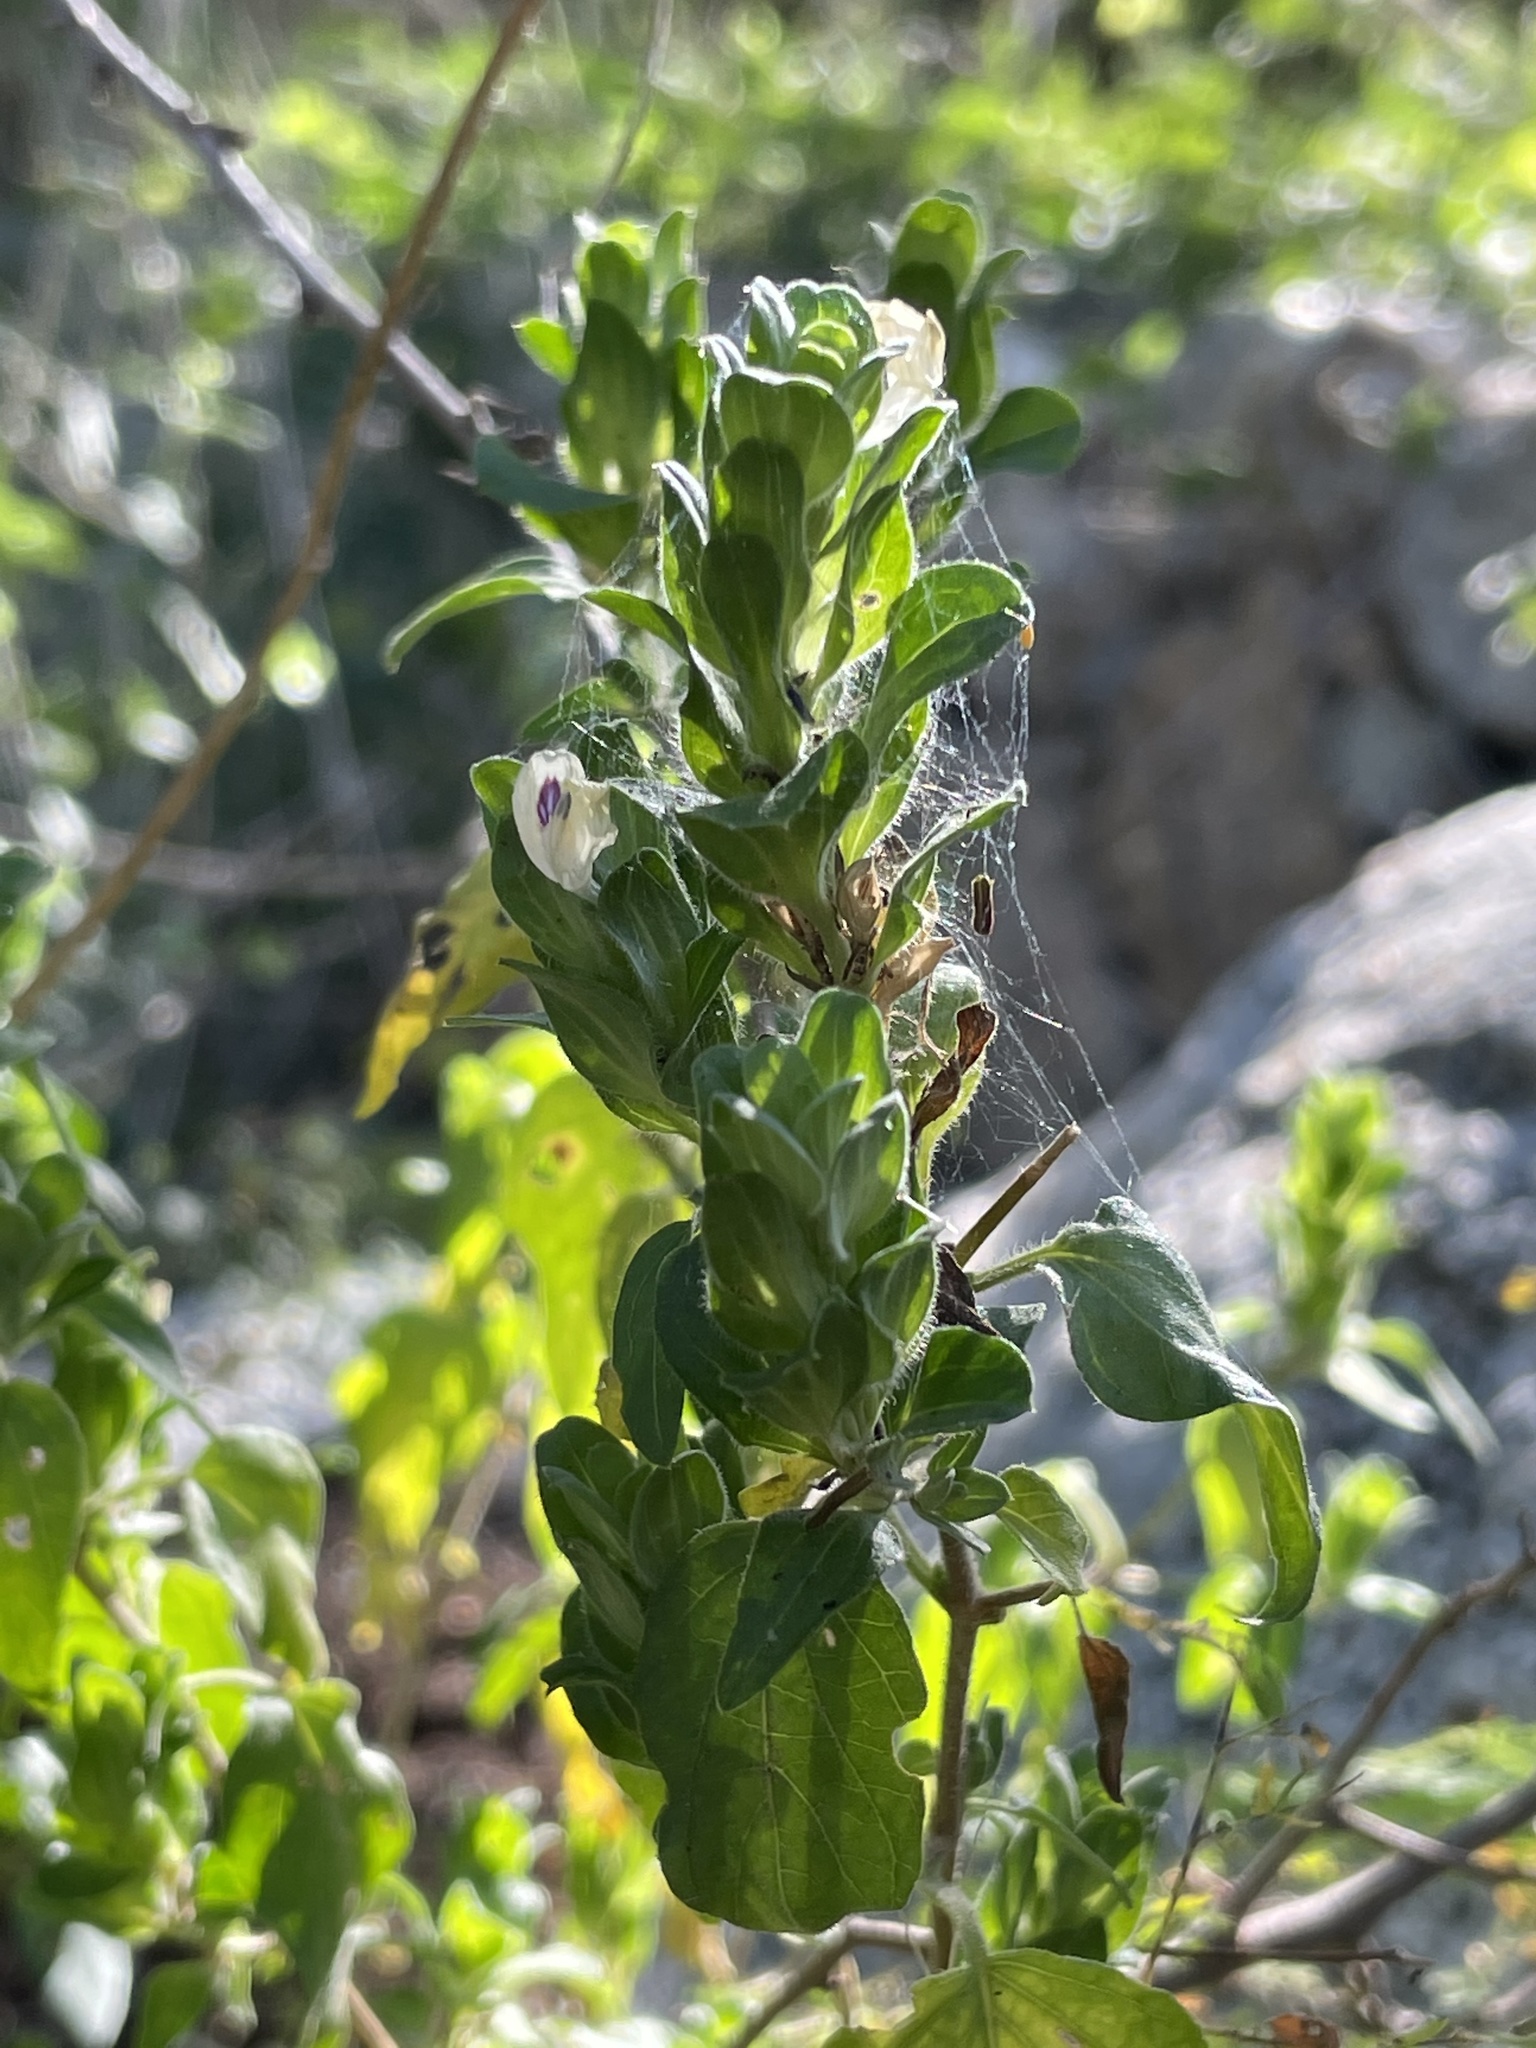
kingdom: Plantae
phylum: Tracheophyta
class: Magnoliopsida
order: Lamiales
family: Acanthaceae
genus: Tetramerium
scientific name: Tetramerium fruticosum
